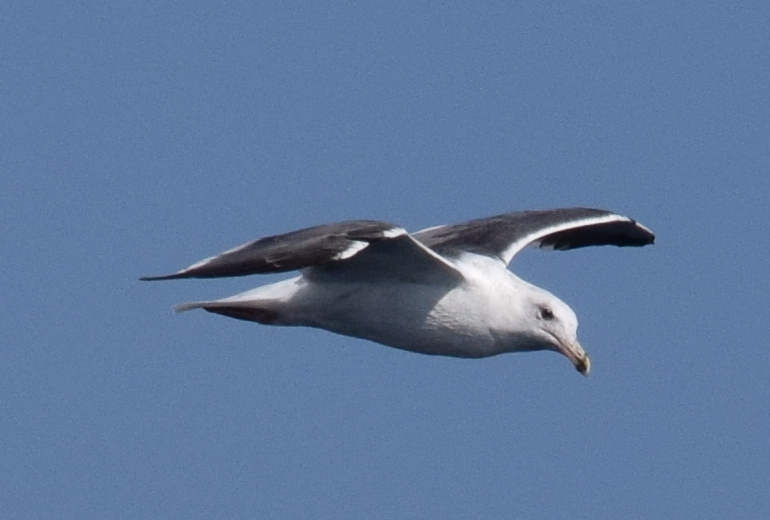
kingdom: Animalia
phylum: Chordata
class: Aves
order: Charadriiformes
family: Laridae
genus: Larus
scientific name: Larus occidentalis
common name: Western gull
